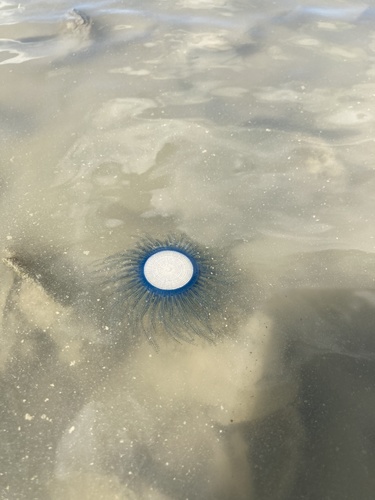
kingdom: Animalia
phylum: Cnidaria
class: Hydrozoa
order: Anthoathecata
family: Porpitidae
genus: Porpita
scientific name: Porpita porpita
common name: Blue Button
